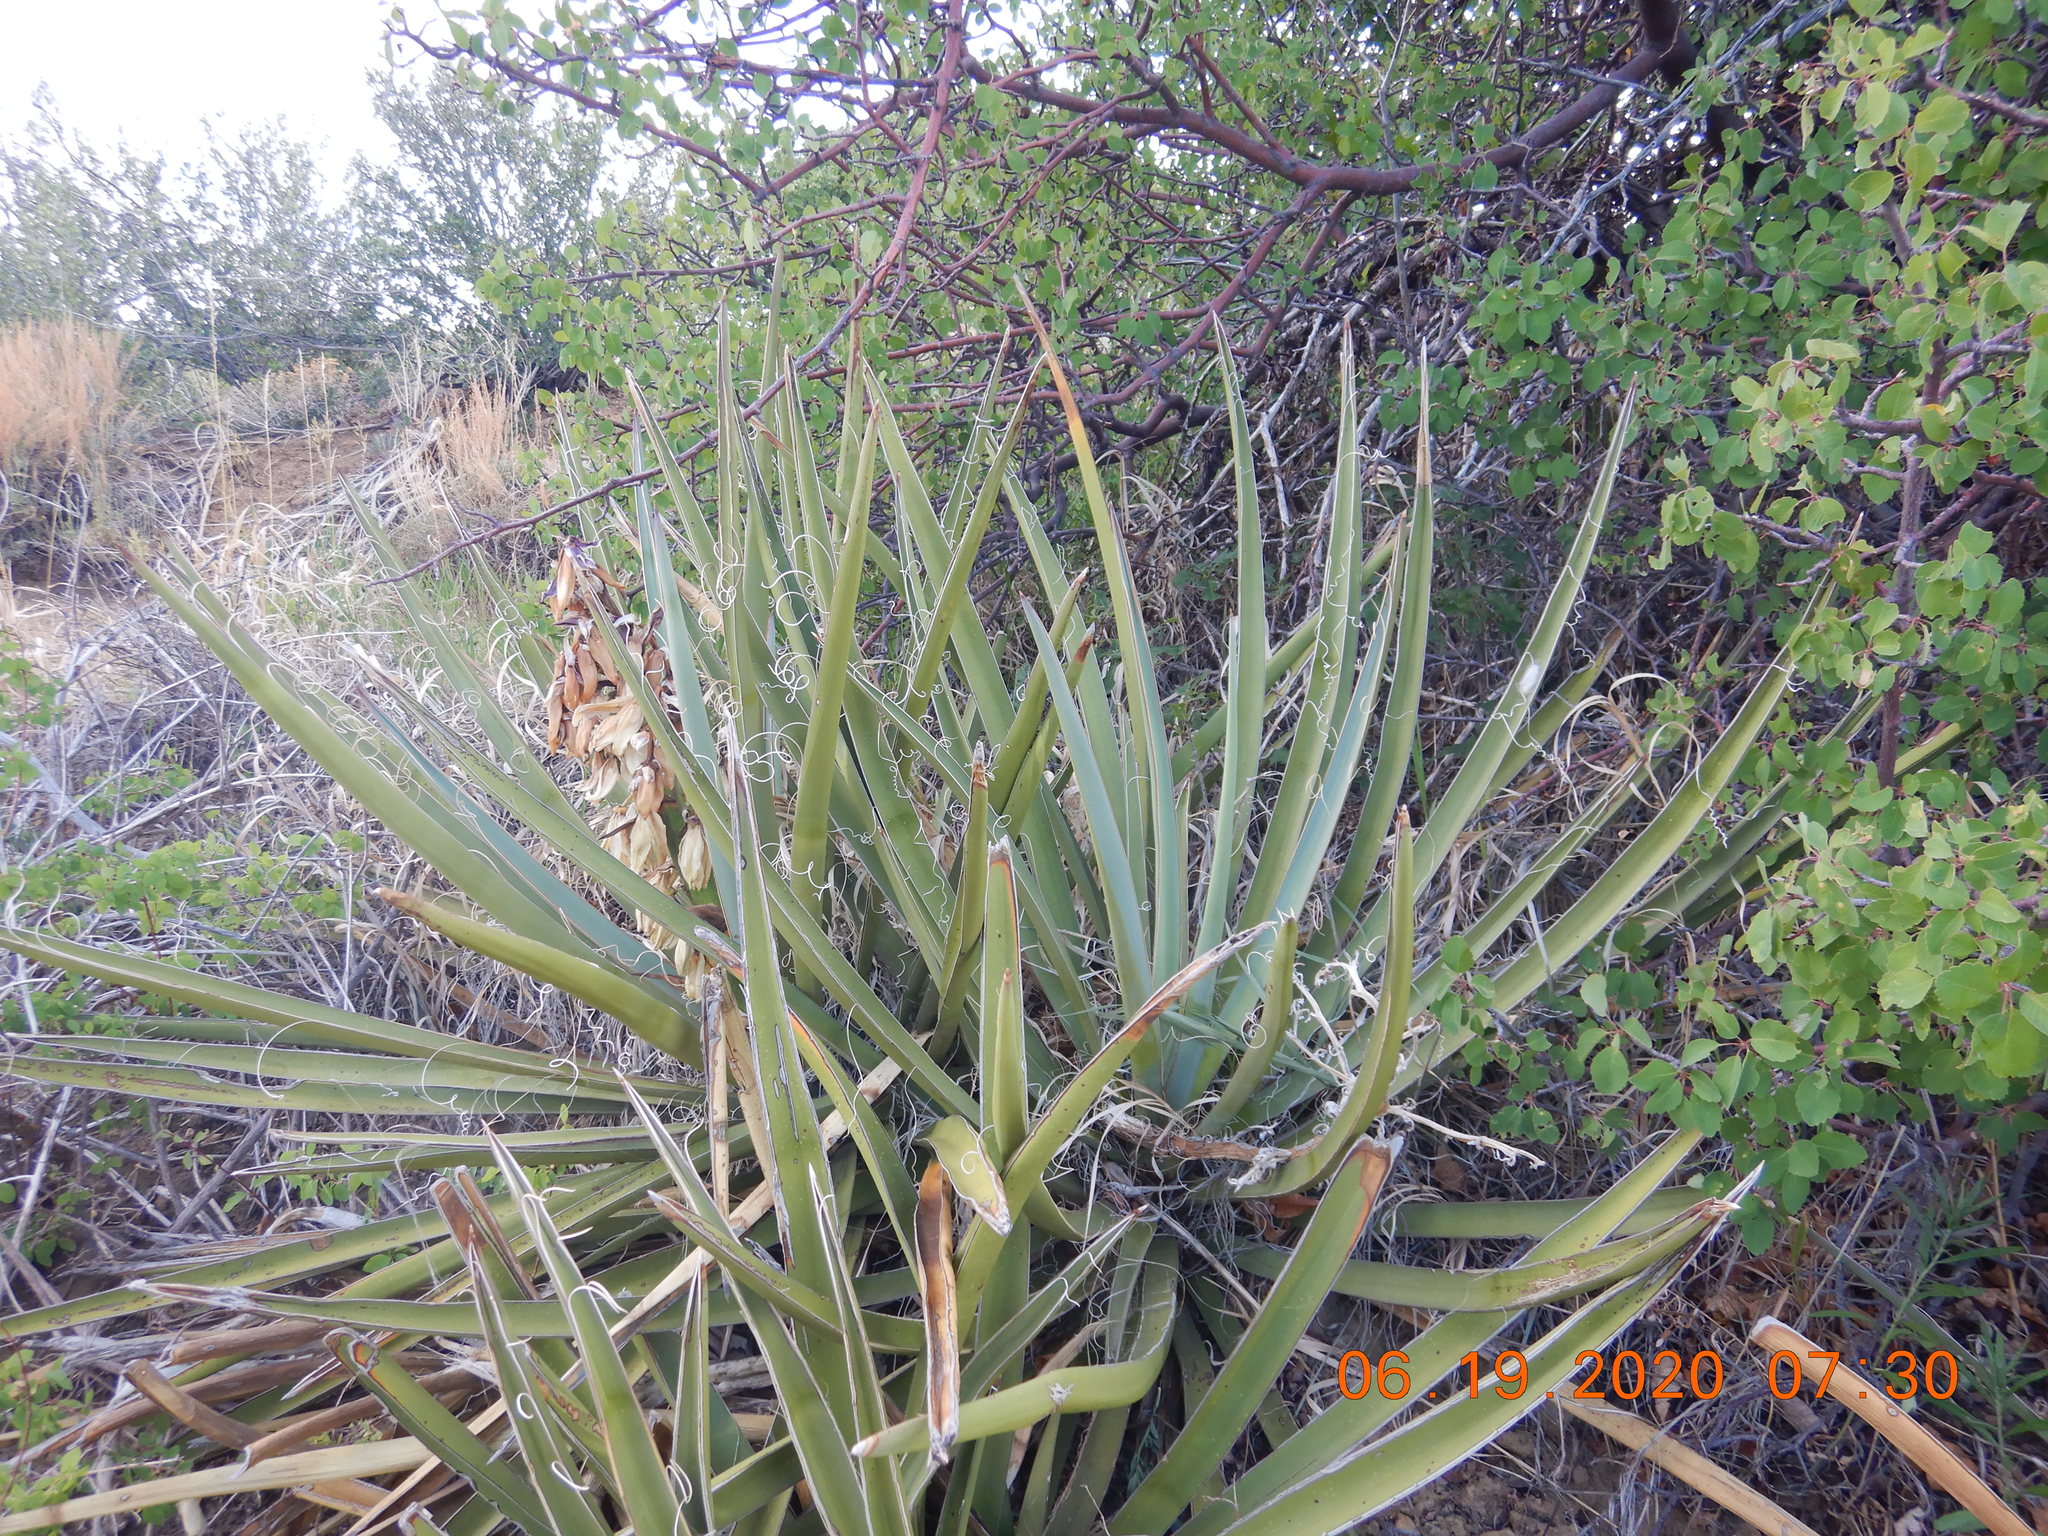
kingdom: Plantae
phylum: Tracheophyta
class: Liliopsida
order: Asparagales
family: Asparagaceae
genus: Yucca
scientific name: Yucca baccata
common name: Banana yucca
